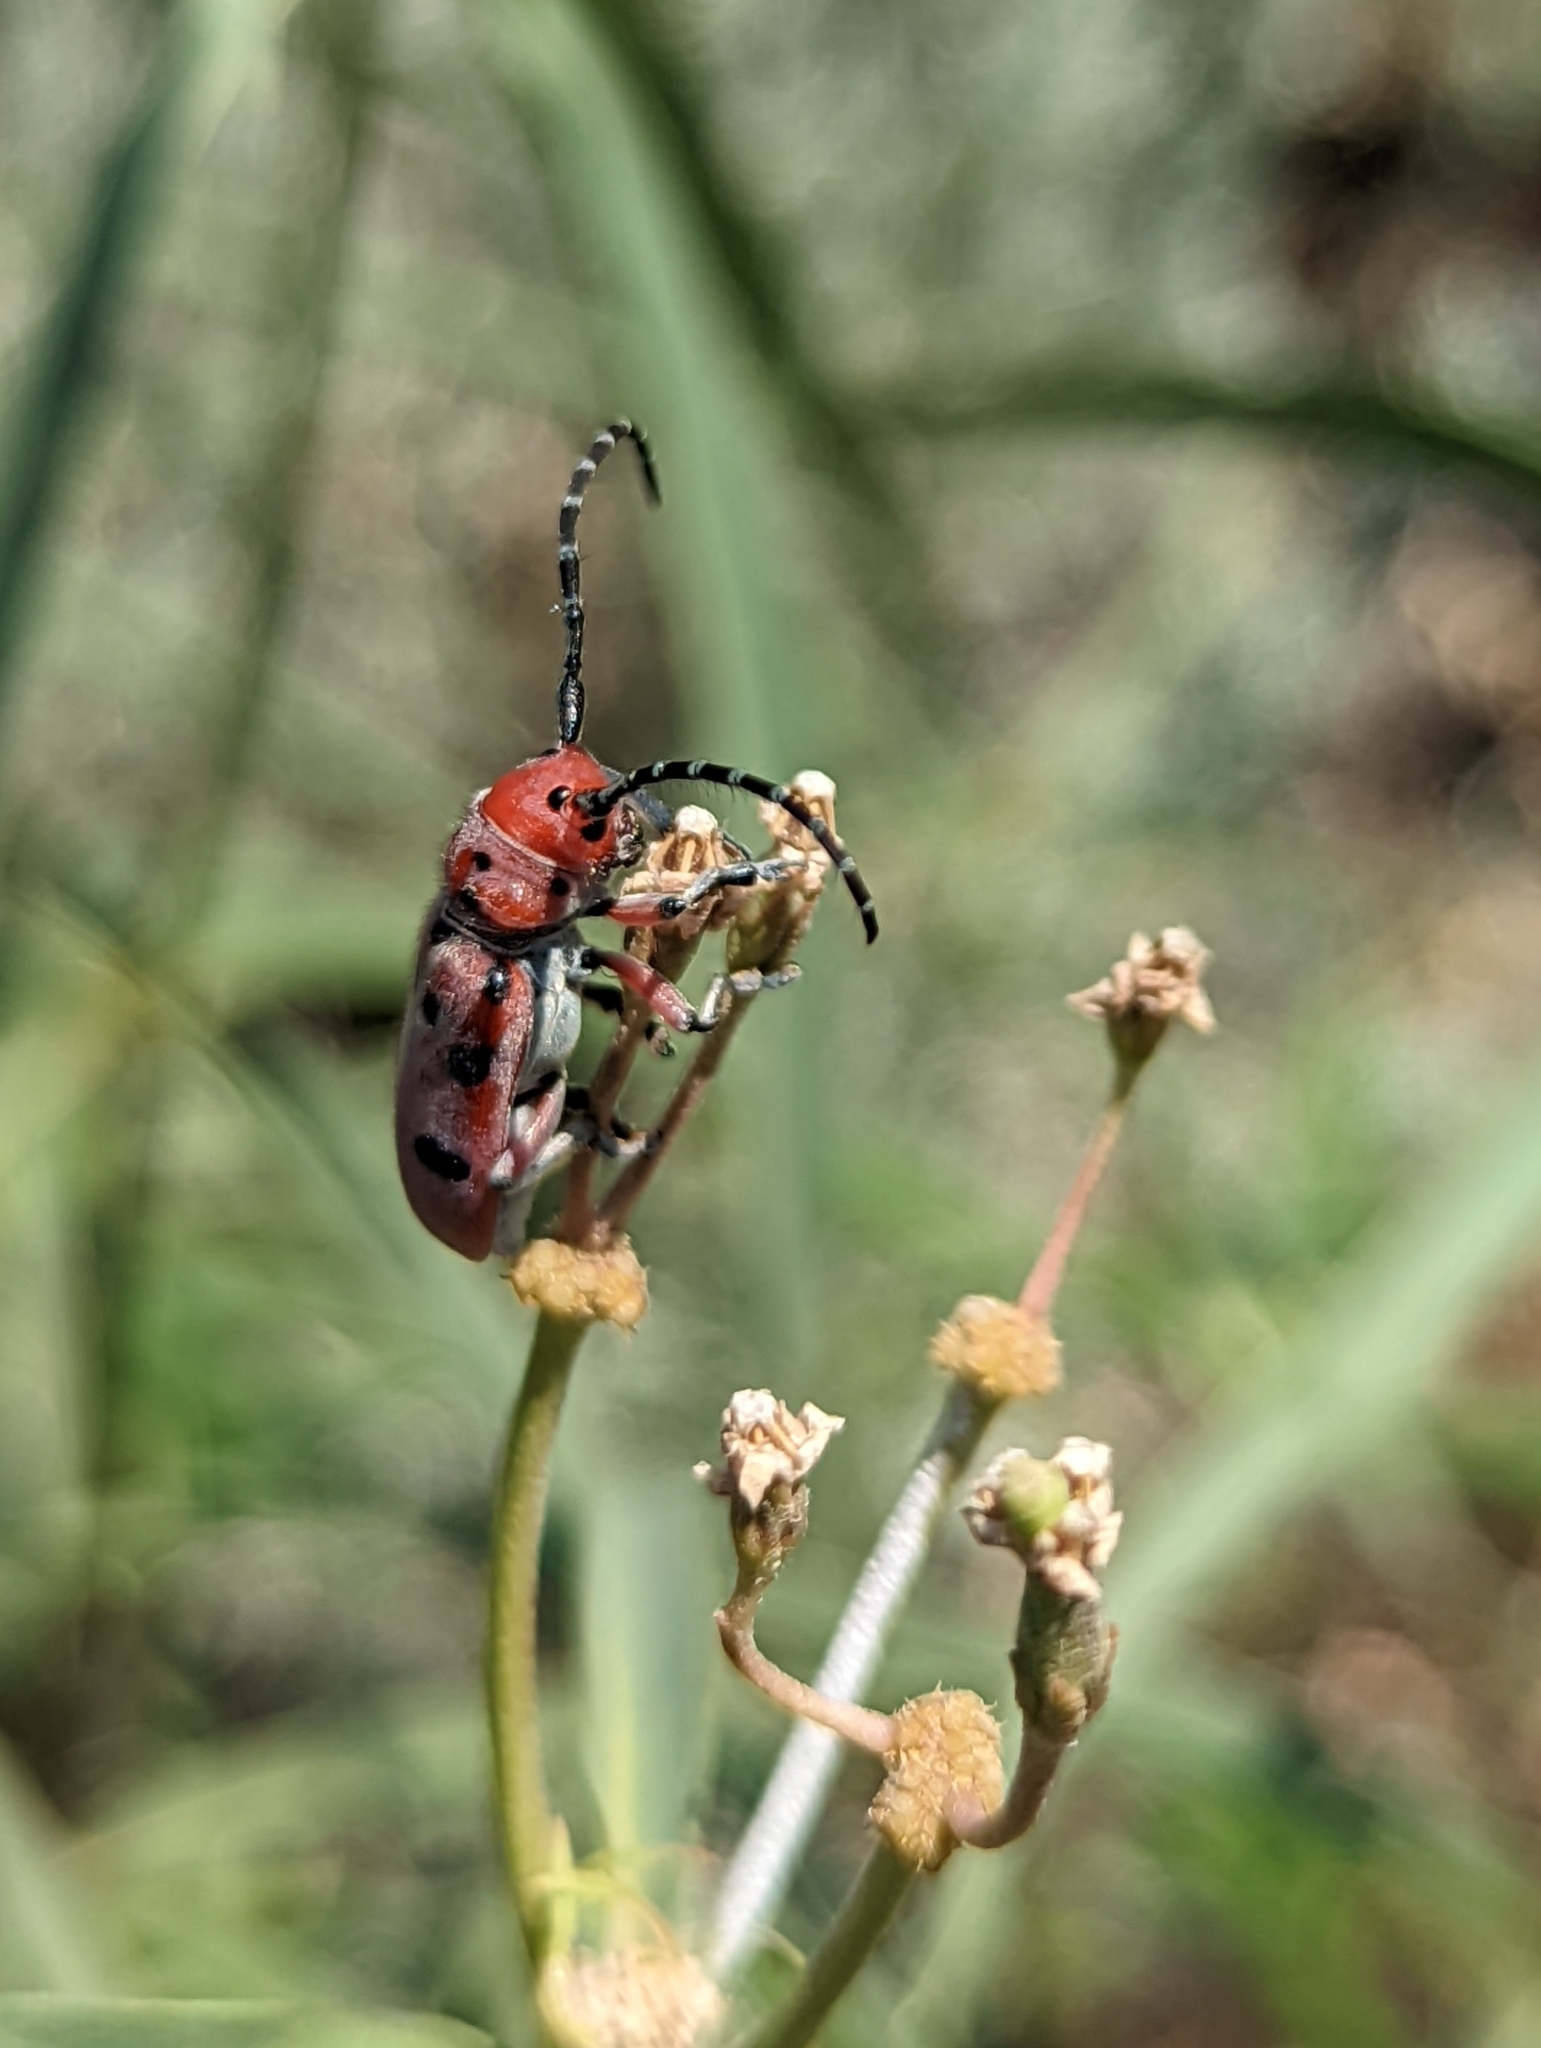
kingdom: Animalia
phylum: Arthropoda
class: Insecta
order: Coleoptera
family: Cerambycidae
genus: Tetraopes
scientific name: Tetraopes femoratus
